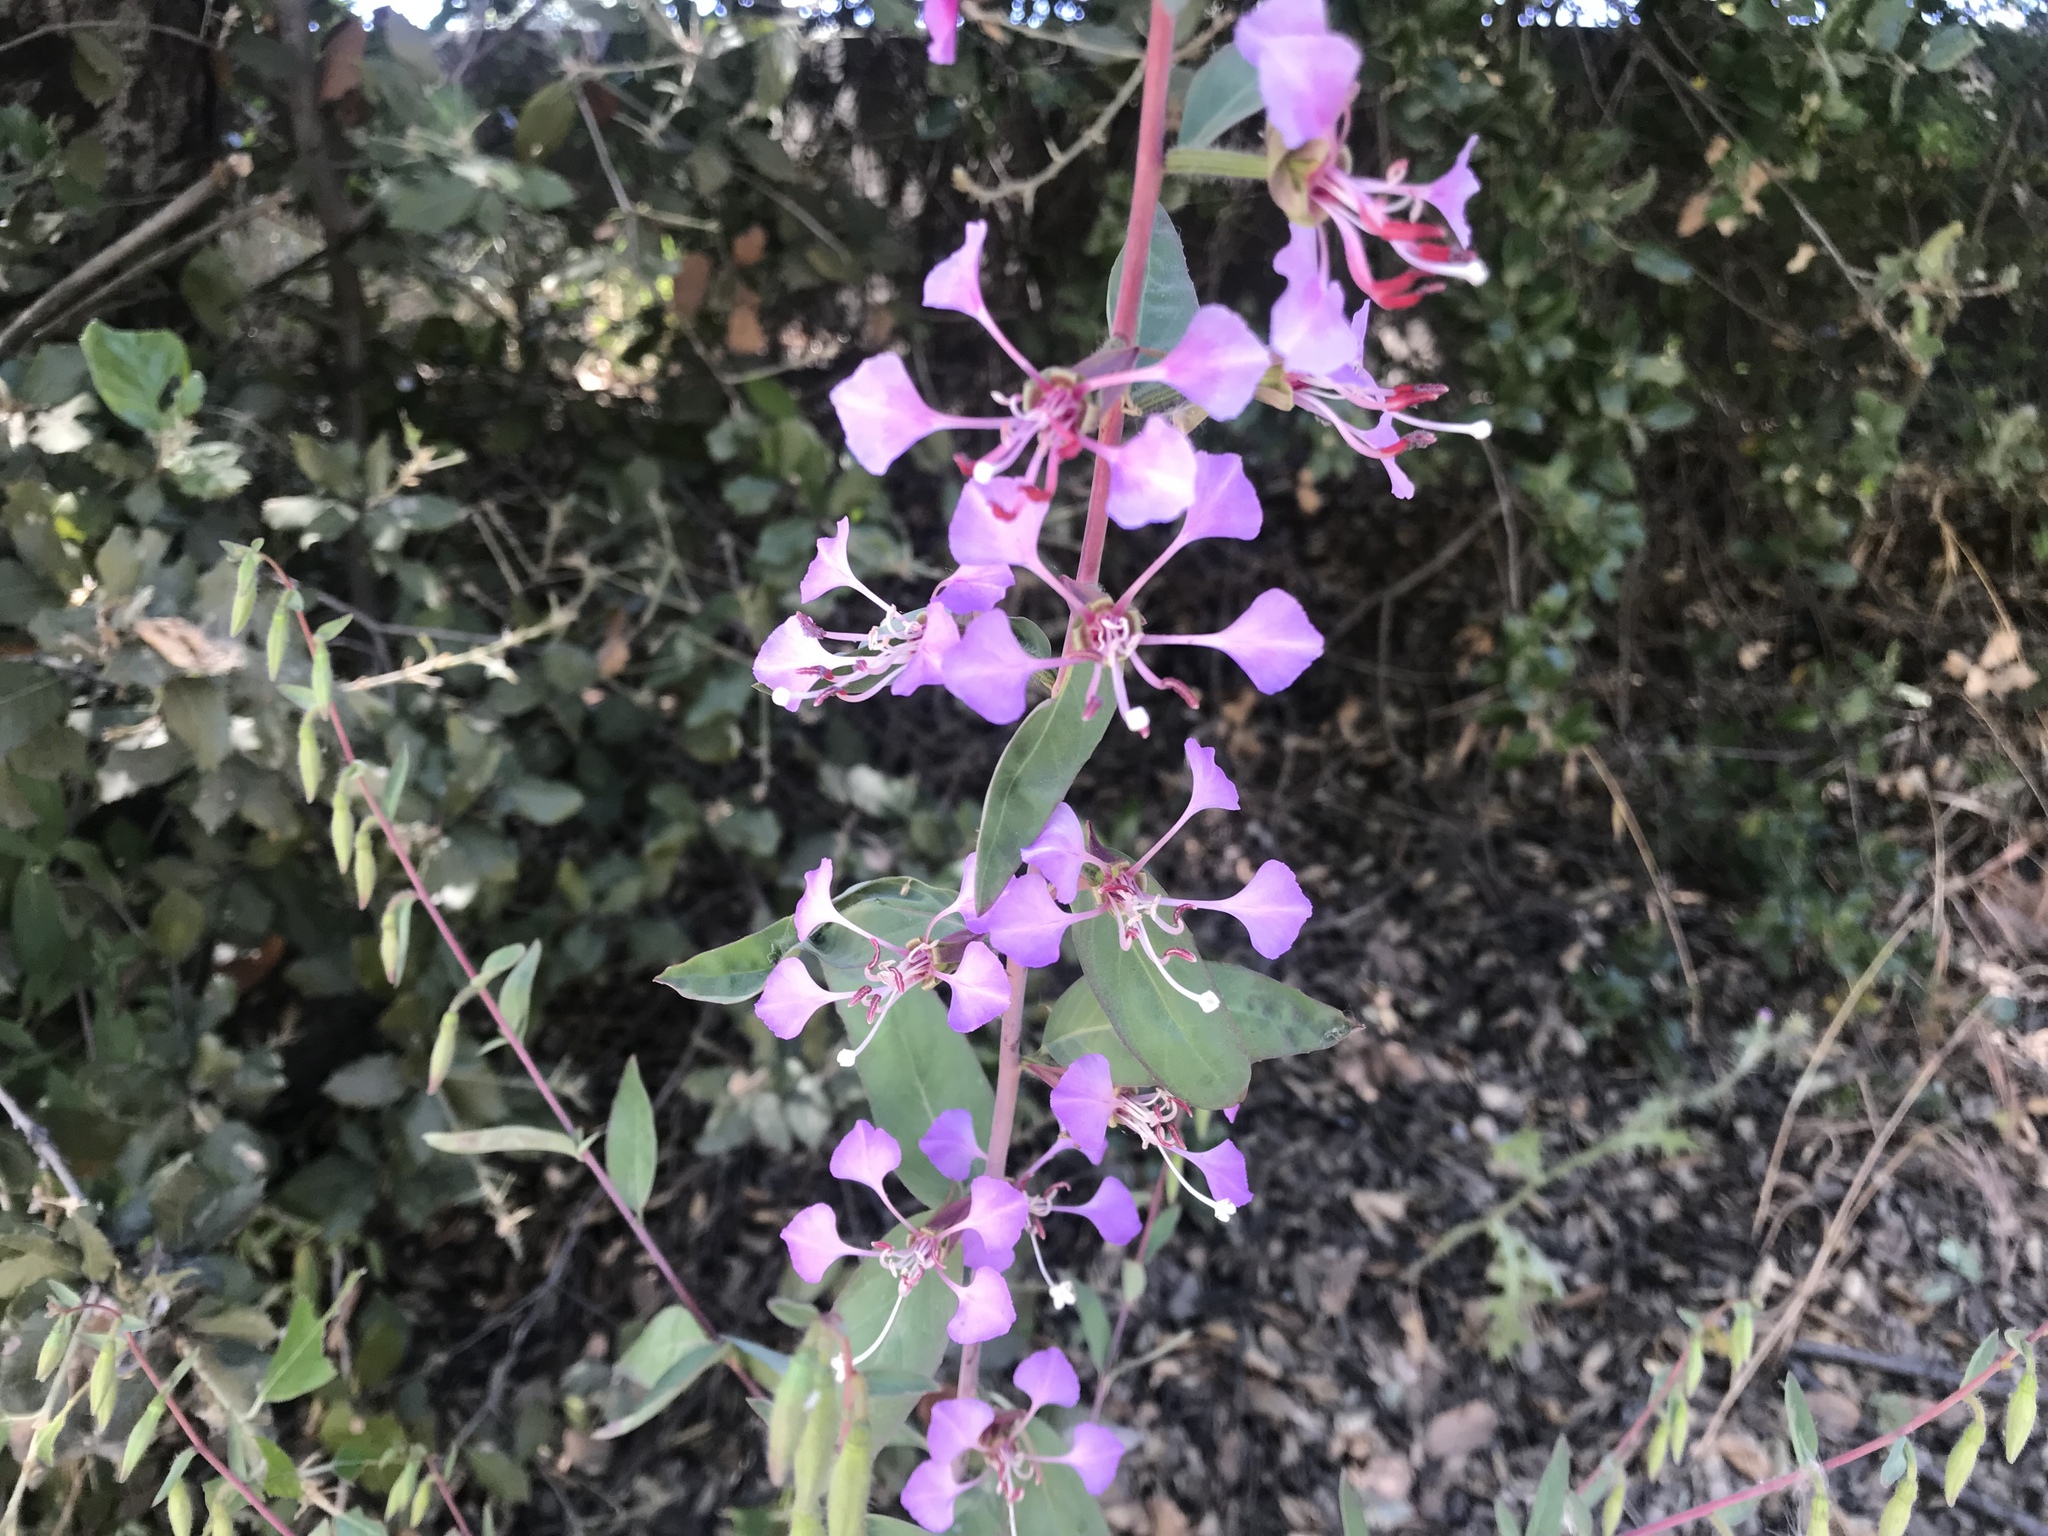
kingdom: Plantae
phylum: Tracheophyta
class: Magnoliopsida
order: Myrtales
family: Onagraceae
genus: Clarkia
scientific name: Clarkia unguiculata
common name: Clarkia
